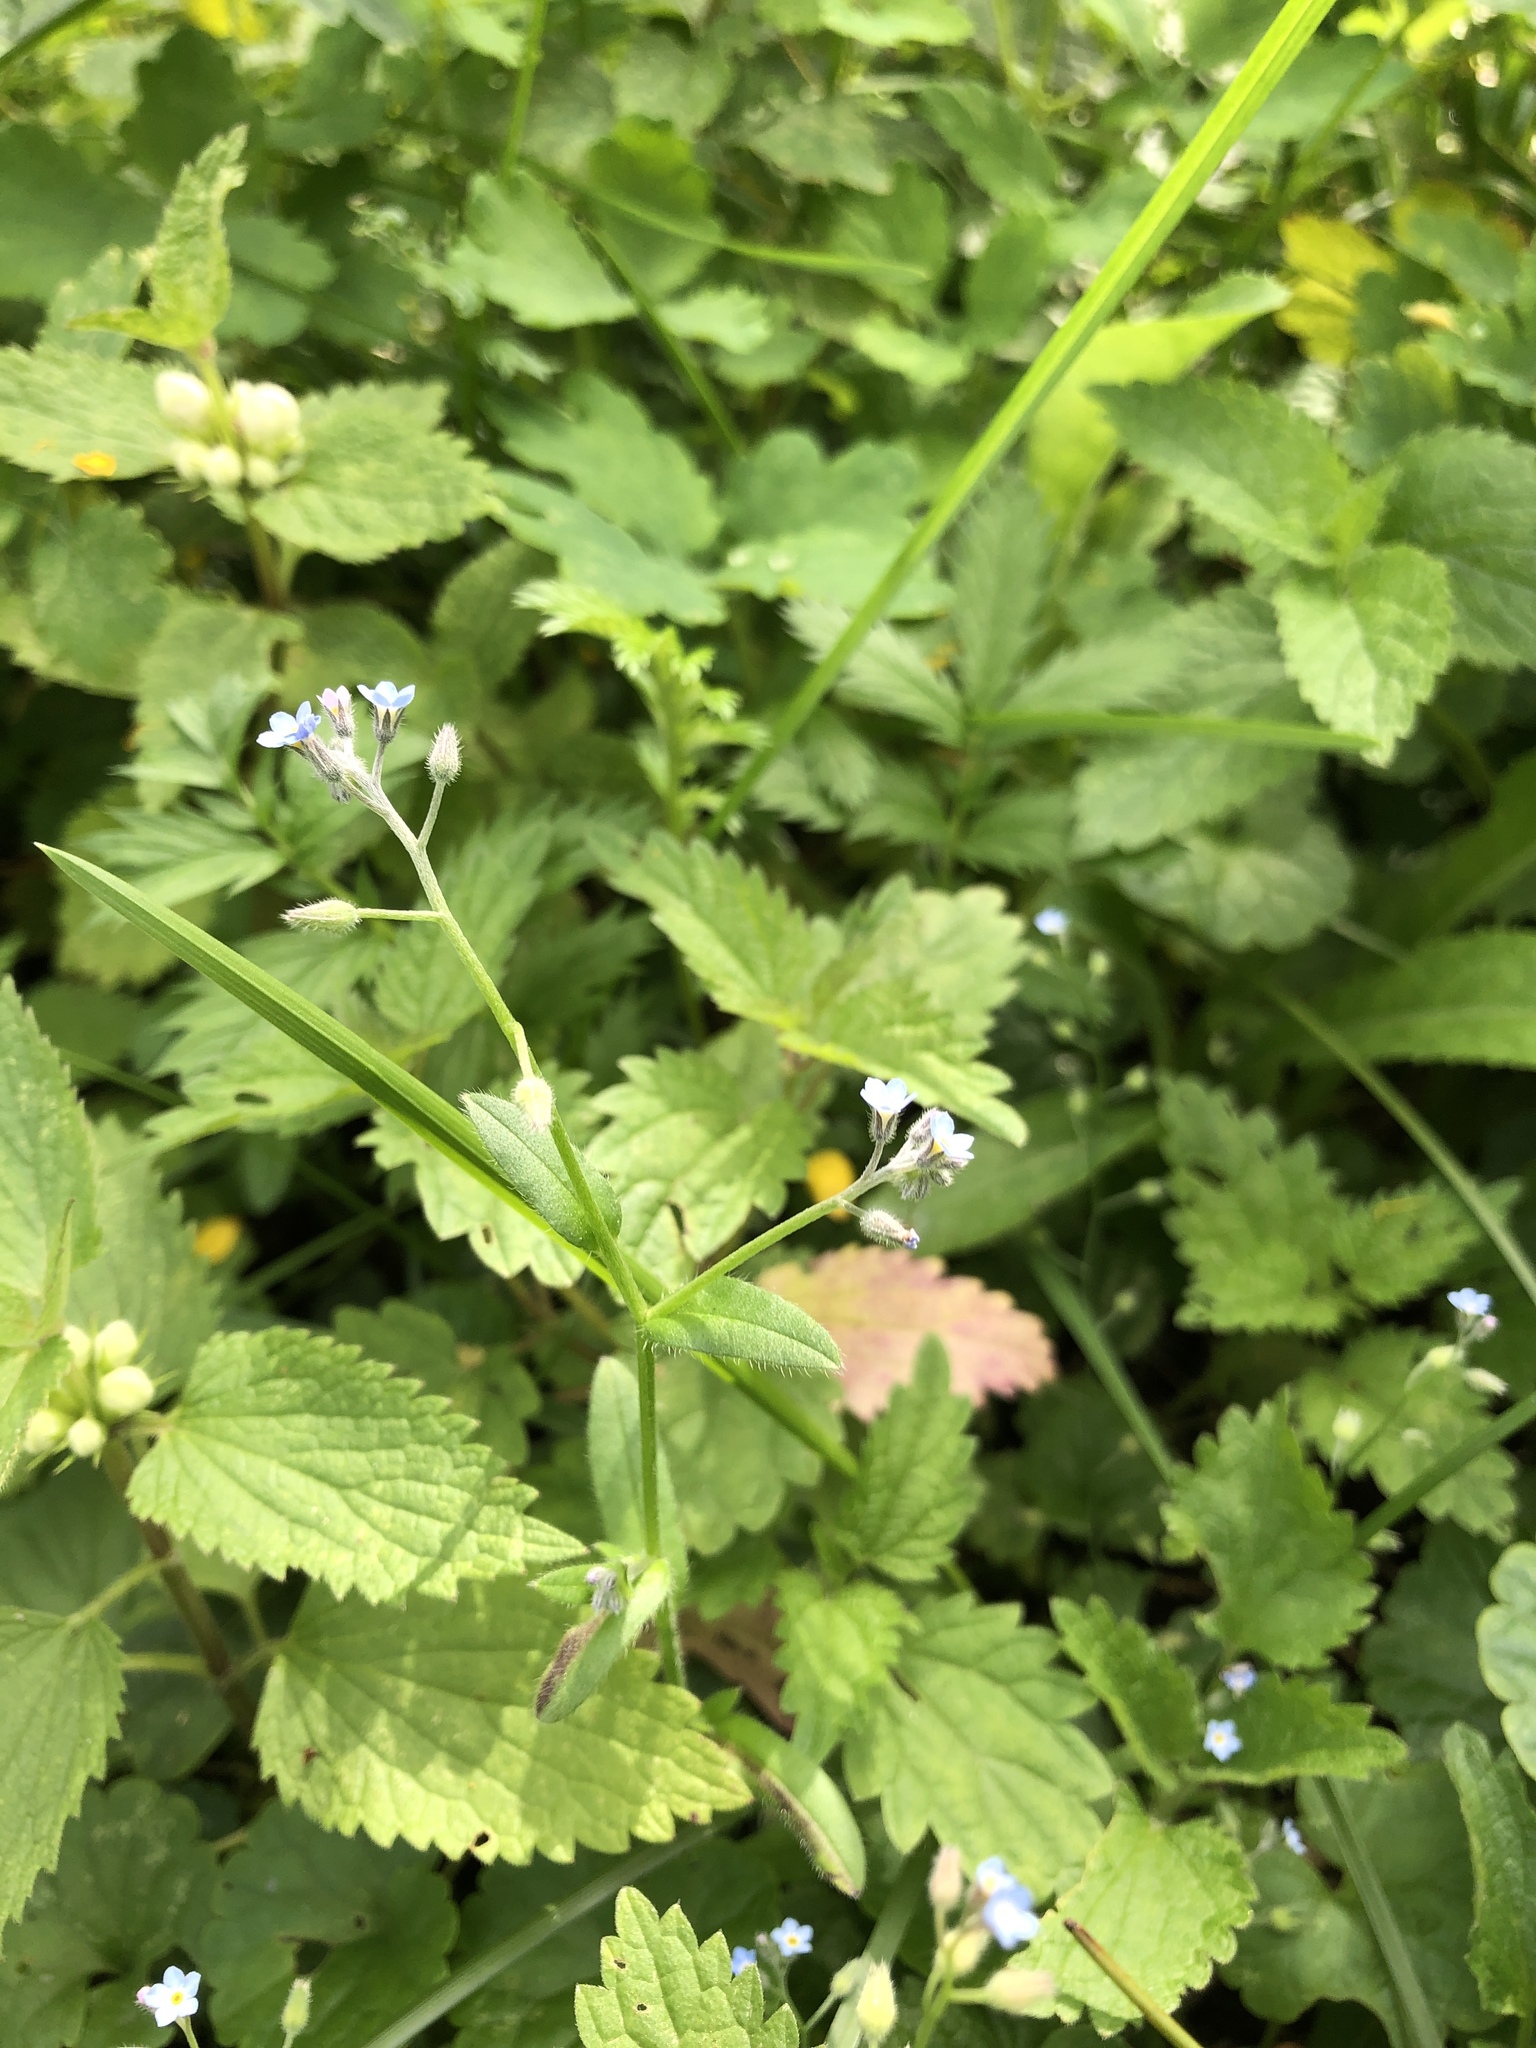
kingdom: Plantae
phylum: Tracheophyta
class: Magnoliopsida
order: Boraginales
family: Boraginaceae
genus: Myosotis
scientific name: Myosotis arvensis
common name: Field forget-me-not
